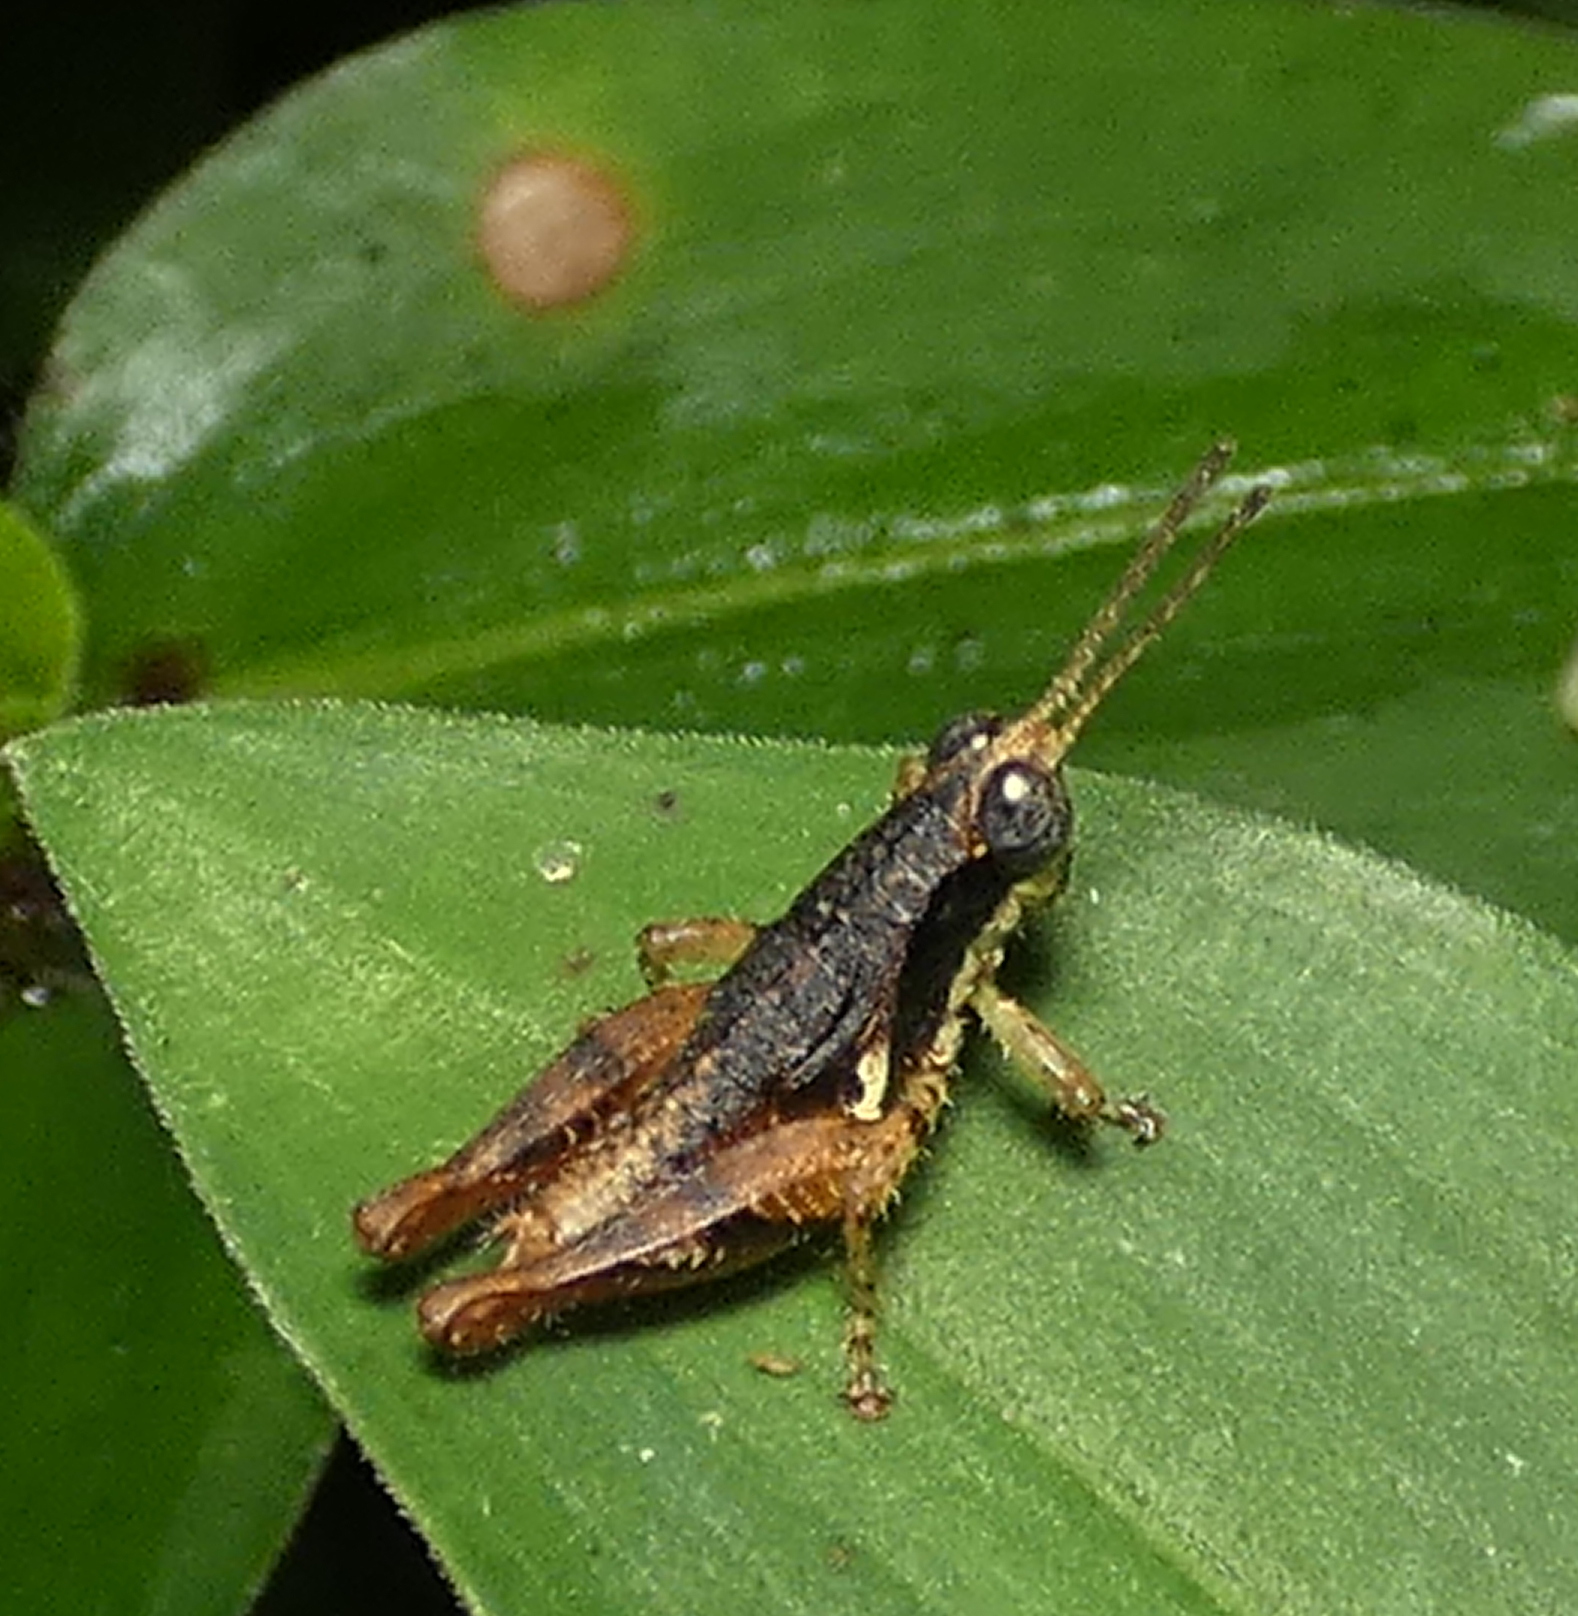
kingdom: Animalia
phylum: Arthropoda
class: Insecta
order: Orthoptera
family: Acrididae
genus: Eujivarus
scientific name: Eujivarus meridionalis
